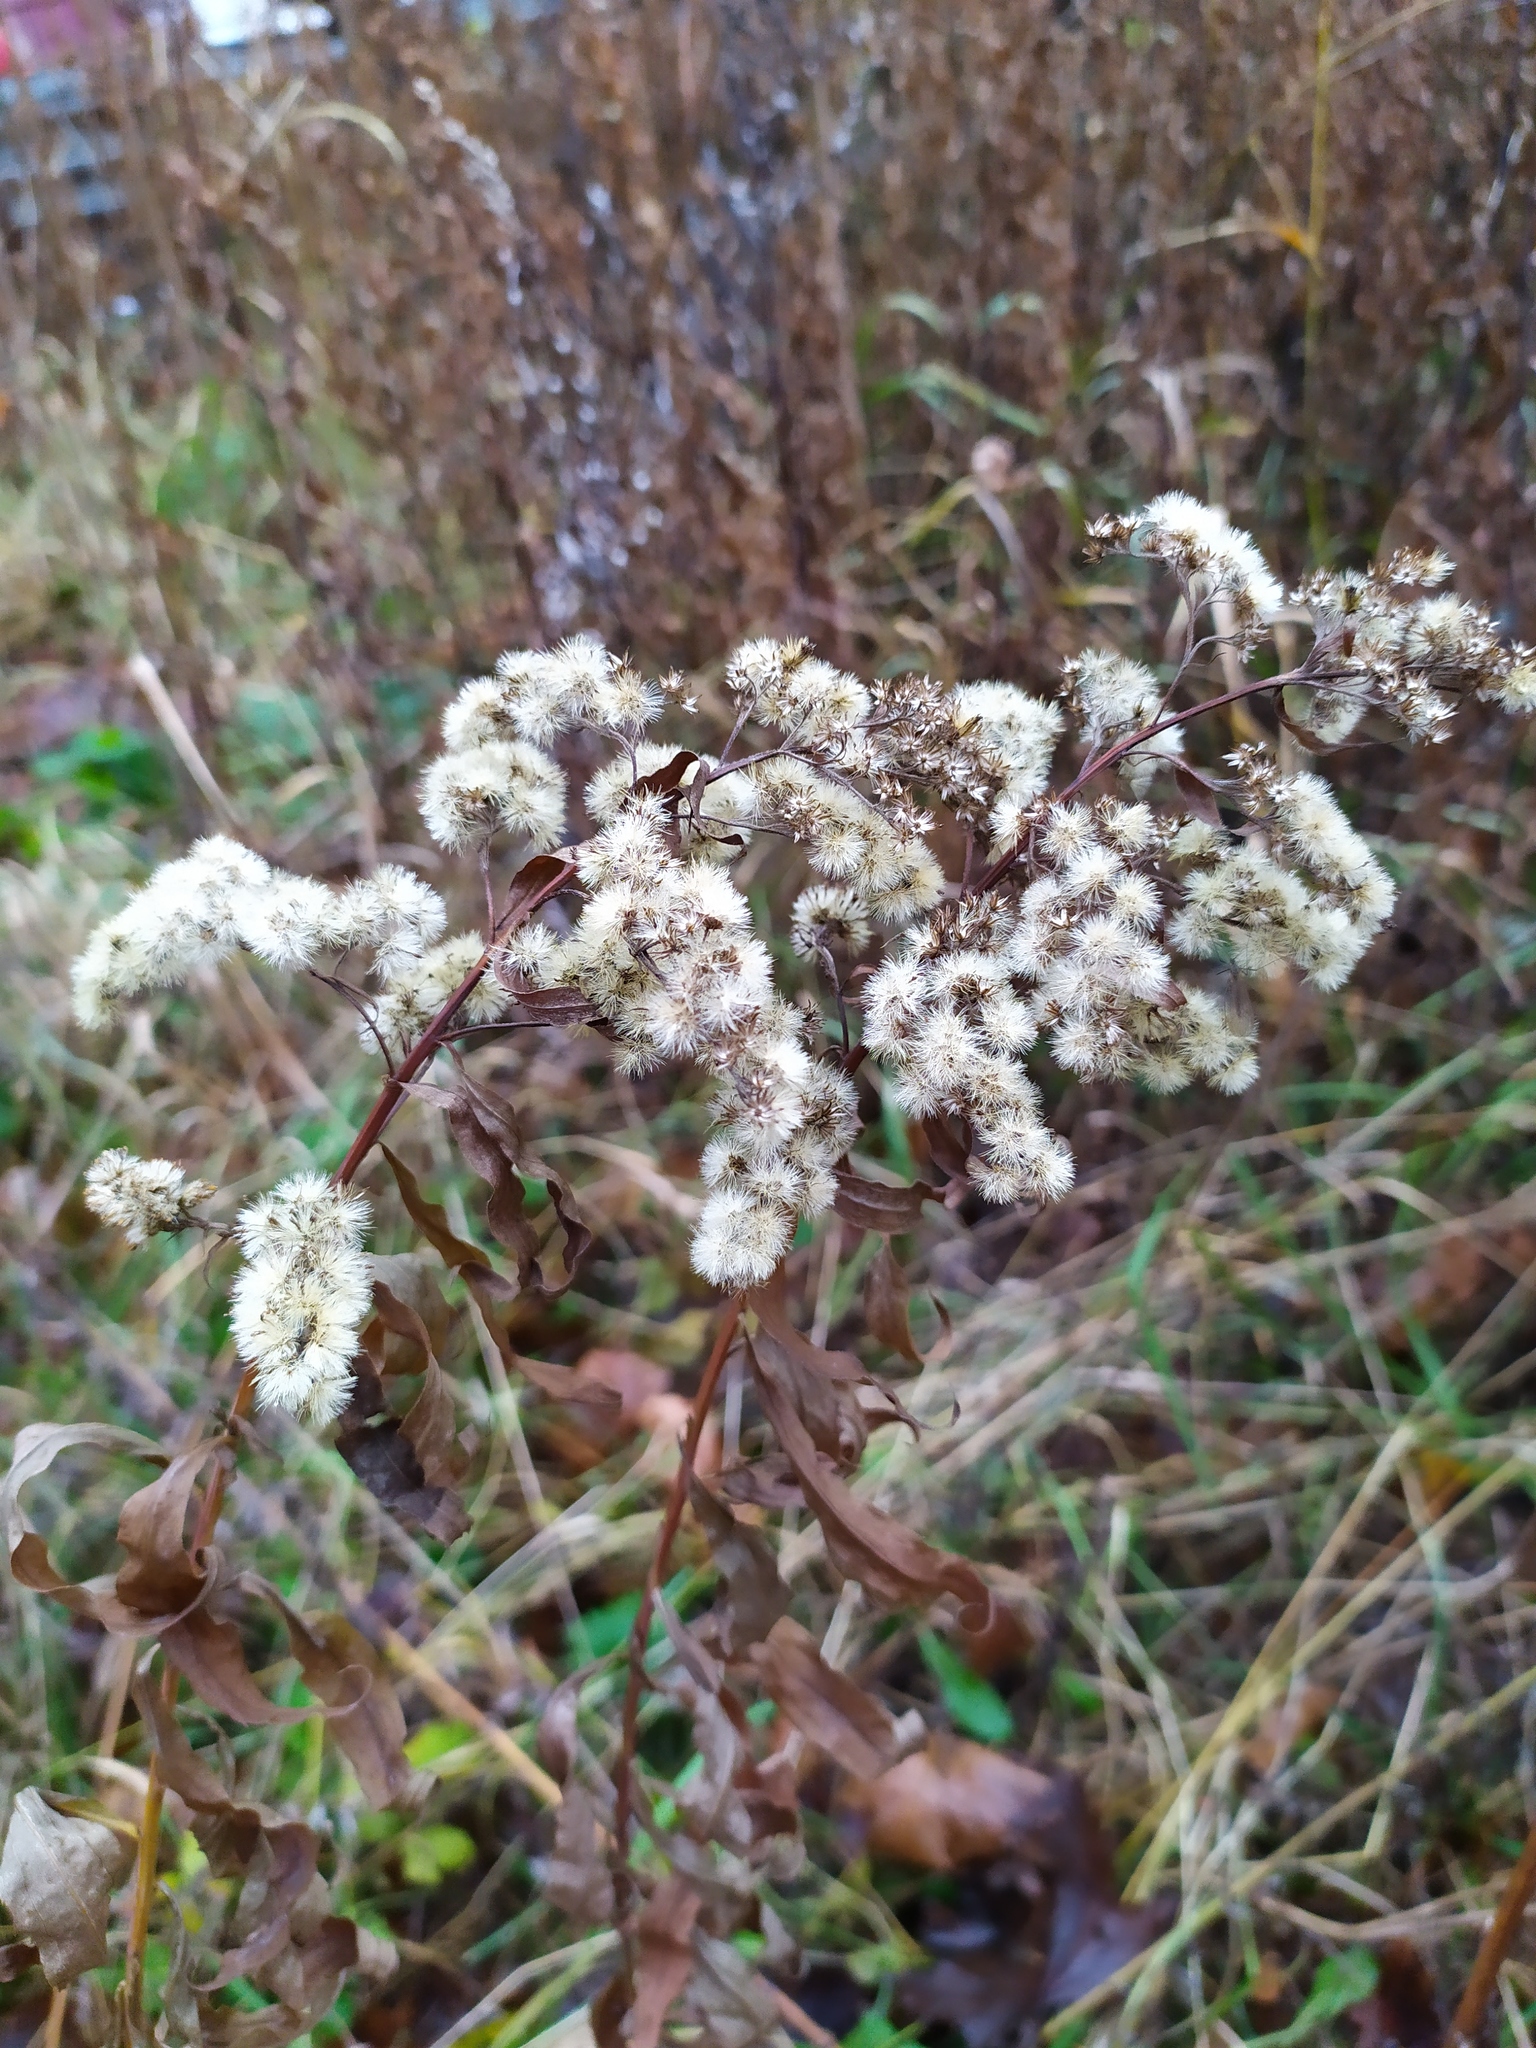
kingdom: Plantae
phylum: Tracheophyta
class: Magnoliopsida
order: Asterales
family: Asteraceae
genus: Solidago
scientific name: Solidago gigantea
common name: Giant goldenrod
